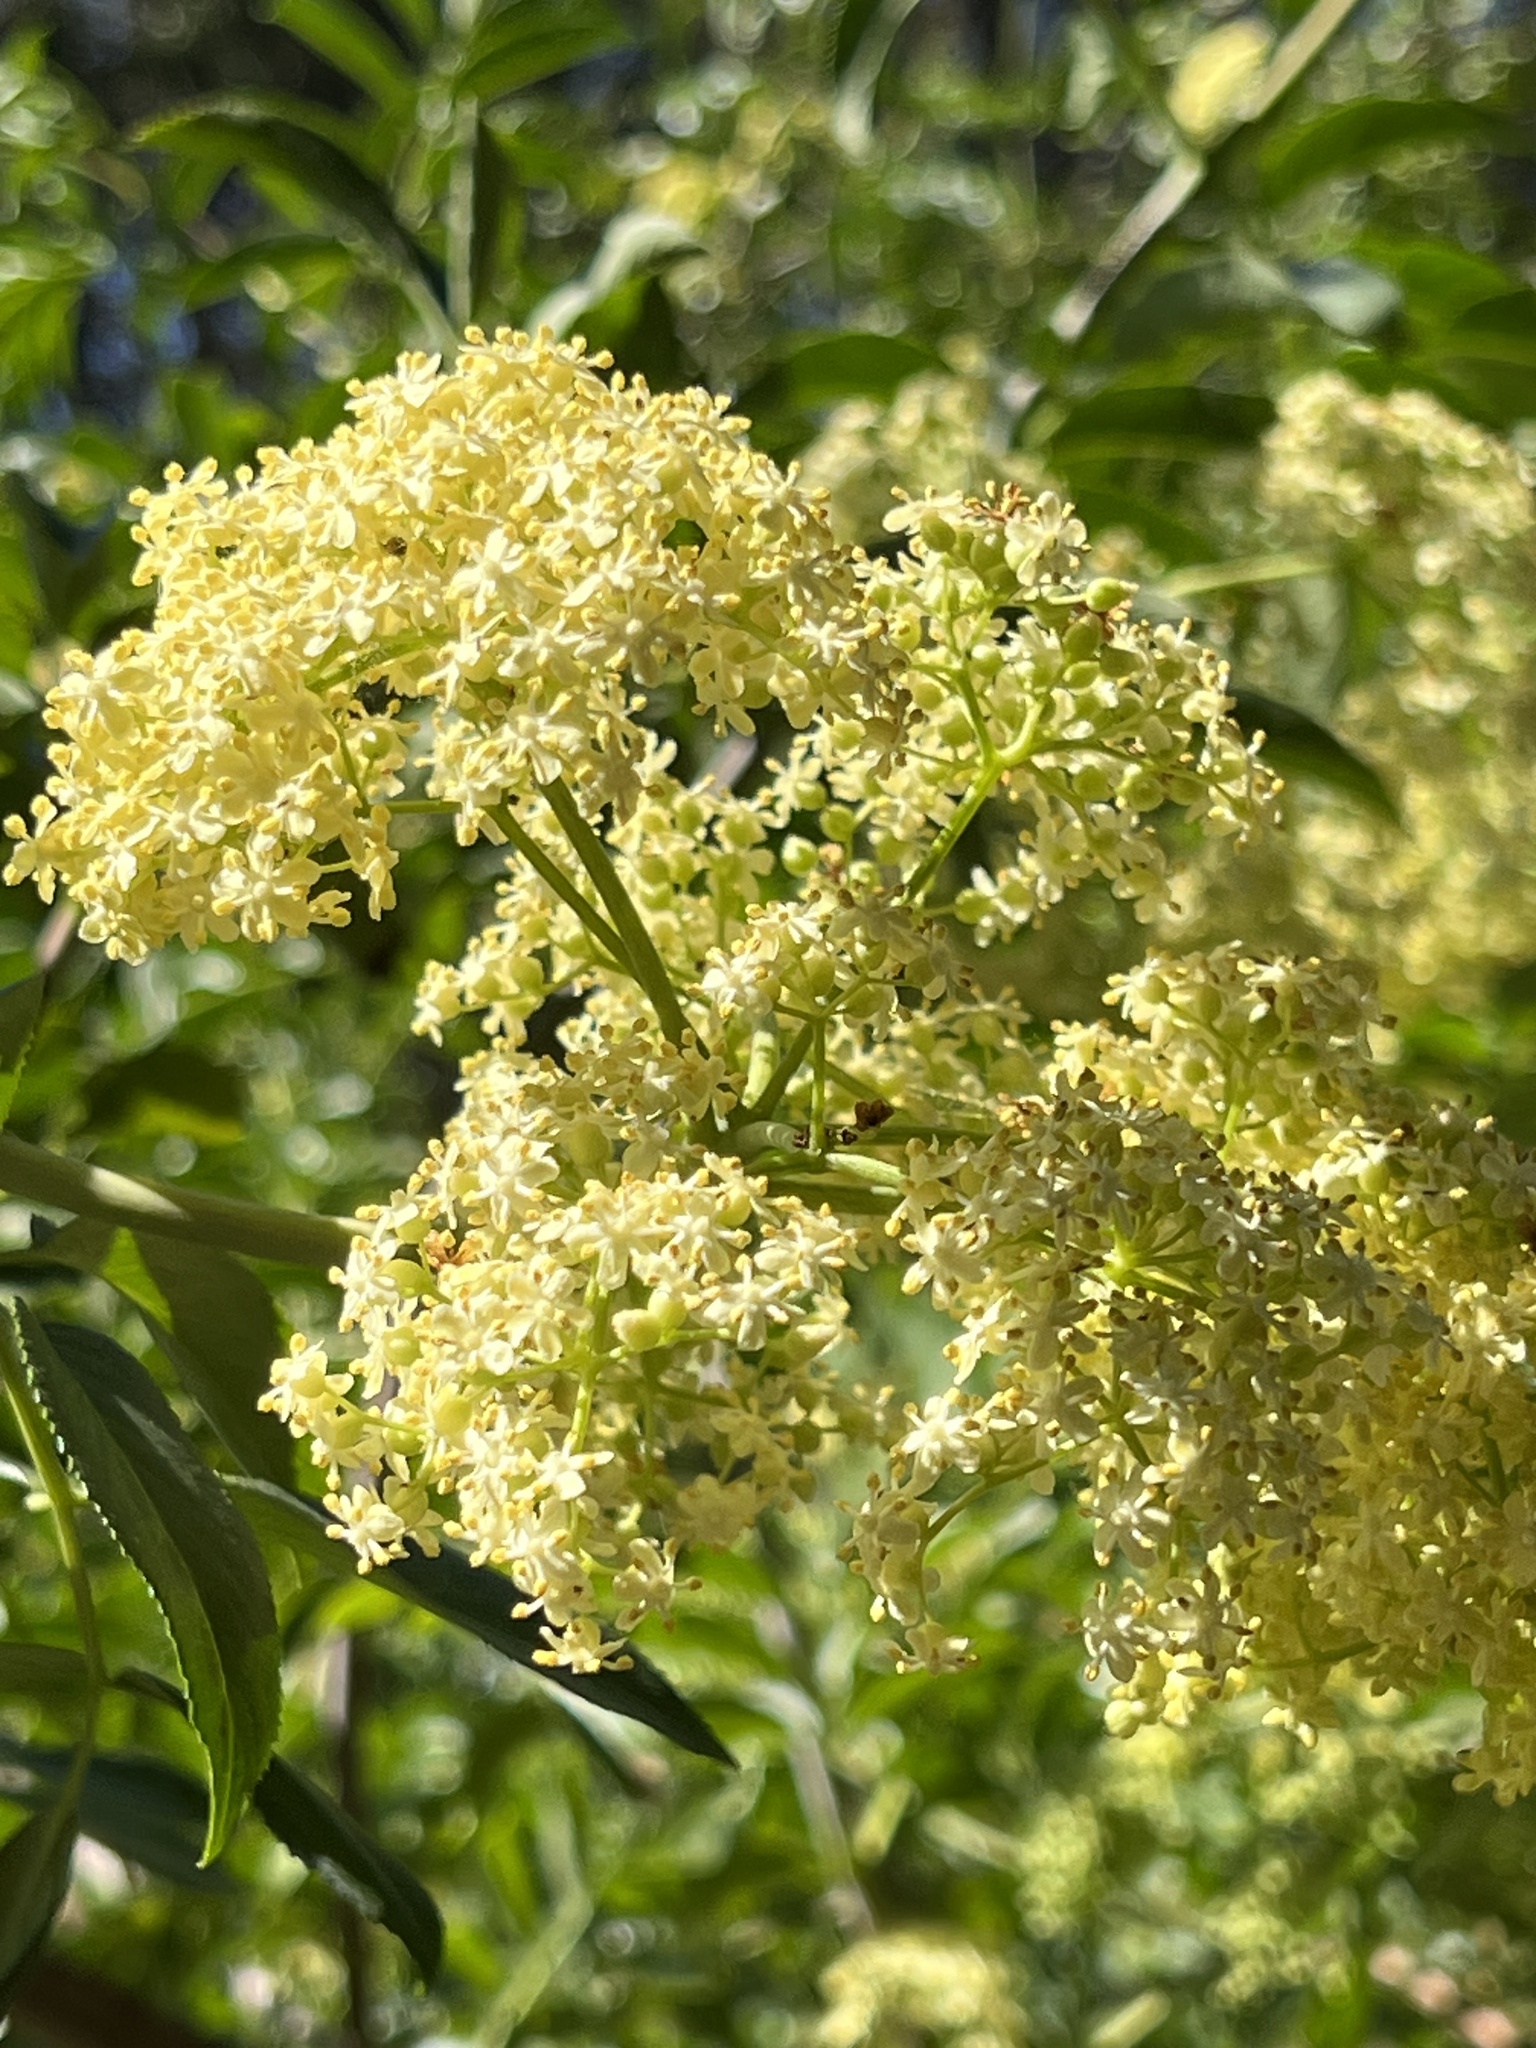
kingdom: Plantae
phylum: Tracheophyta
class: Magnoliopsida
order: Dipsacales
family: Viburnaceae
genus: Sambucus
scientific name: Sambucus cerulea
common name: Blue elder
